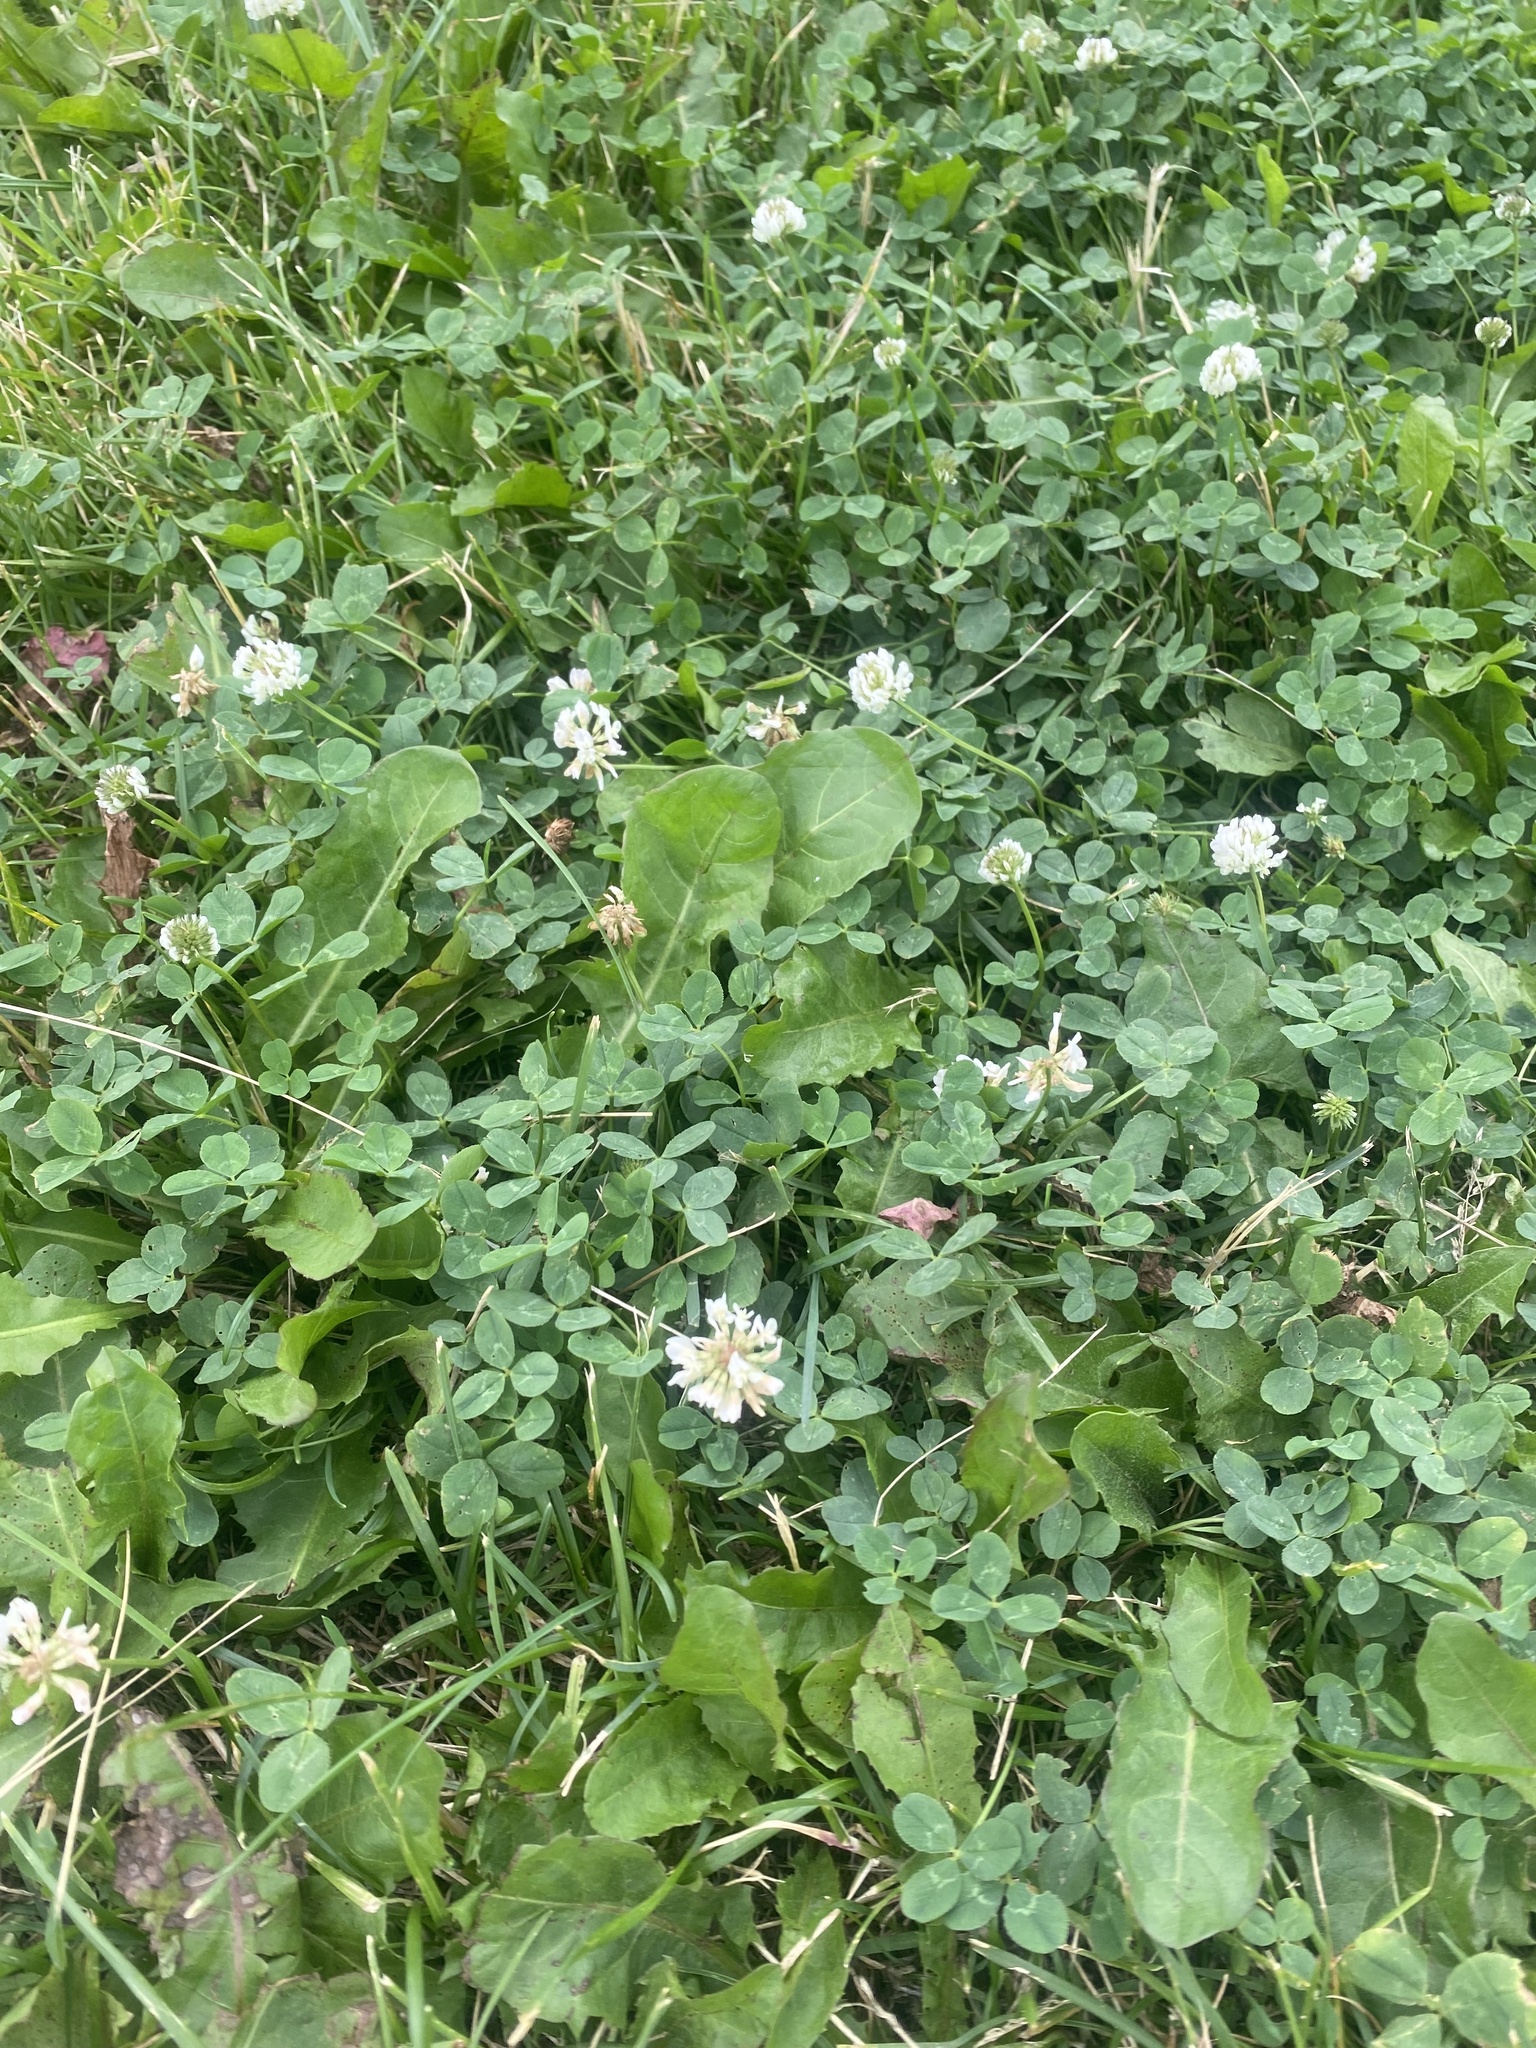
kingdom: Plantae
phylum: Tracheophyta
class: Magnoliopsida
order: Fabales
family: Fabaceae
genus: Trifolium
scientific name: Trifolium repens
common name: White clover
